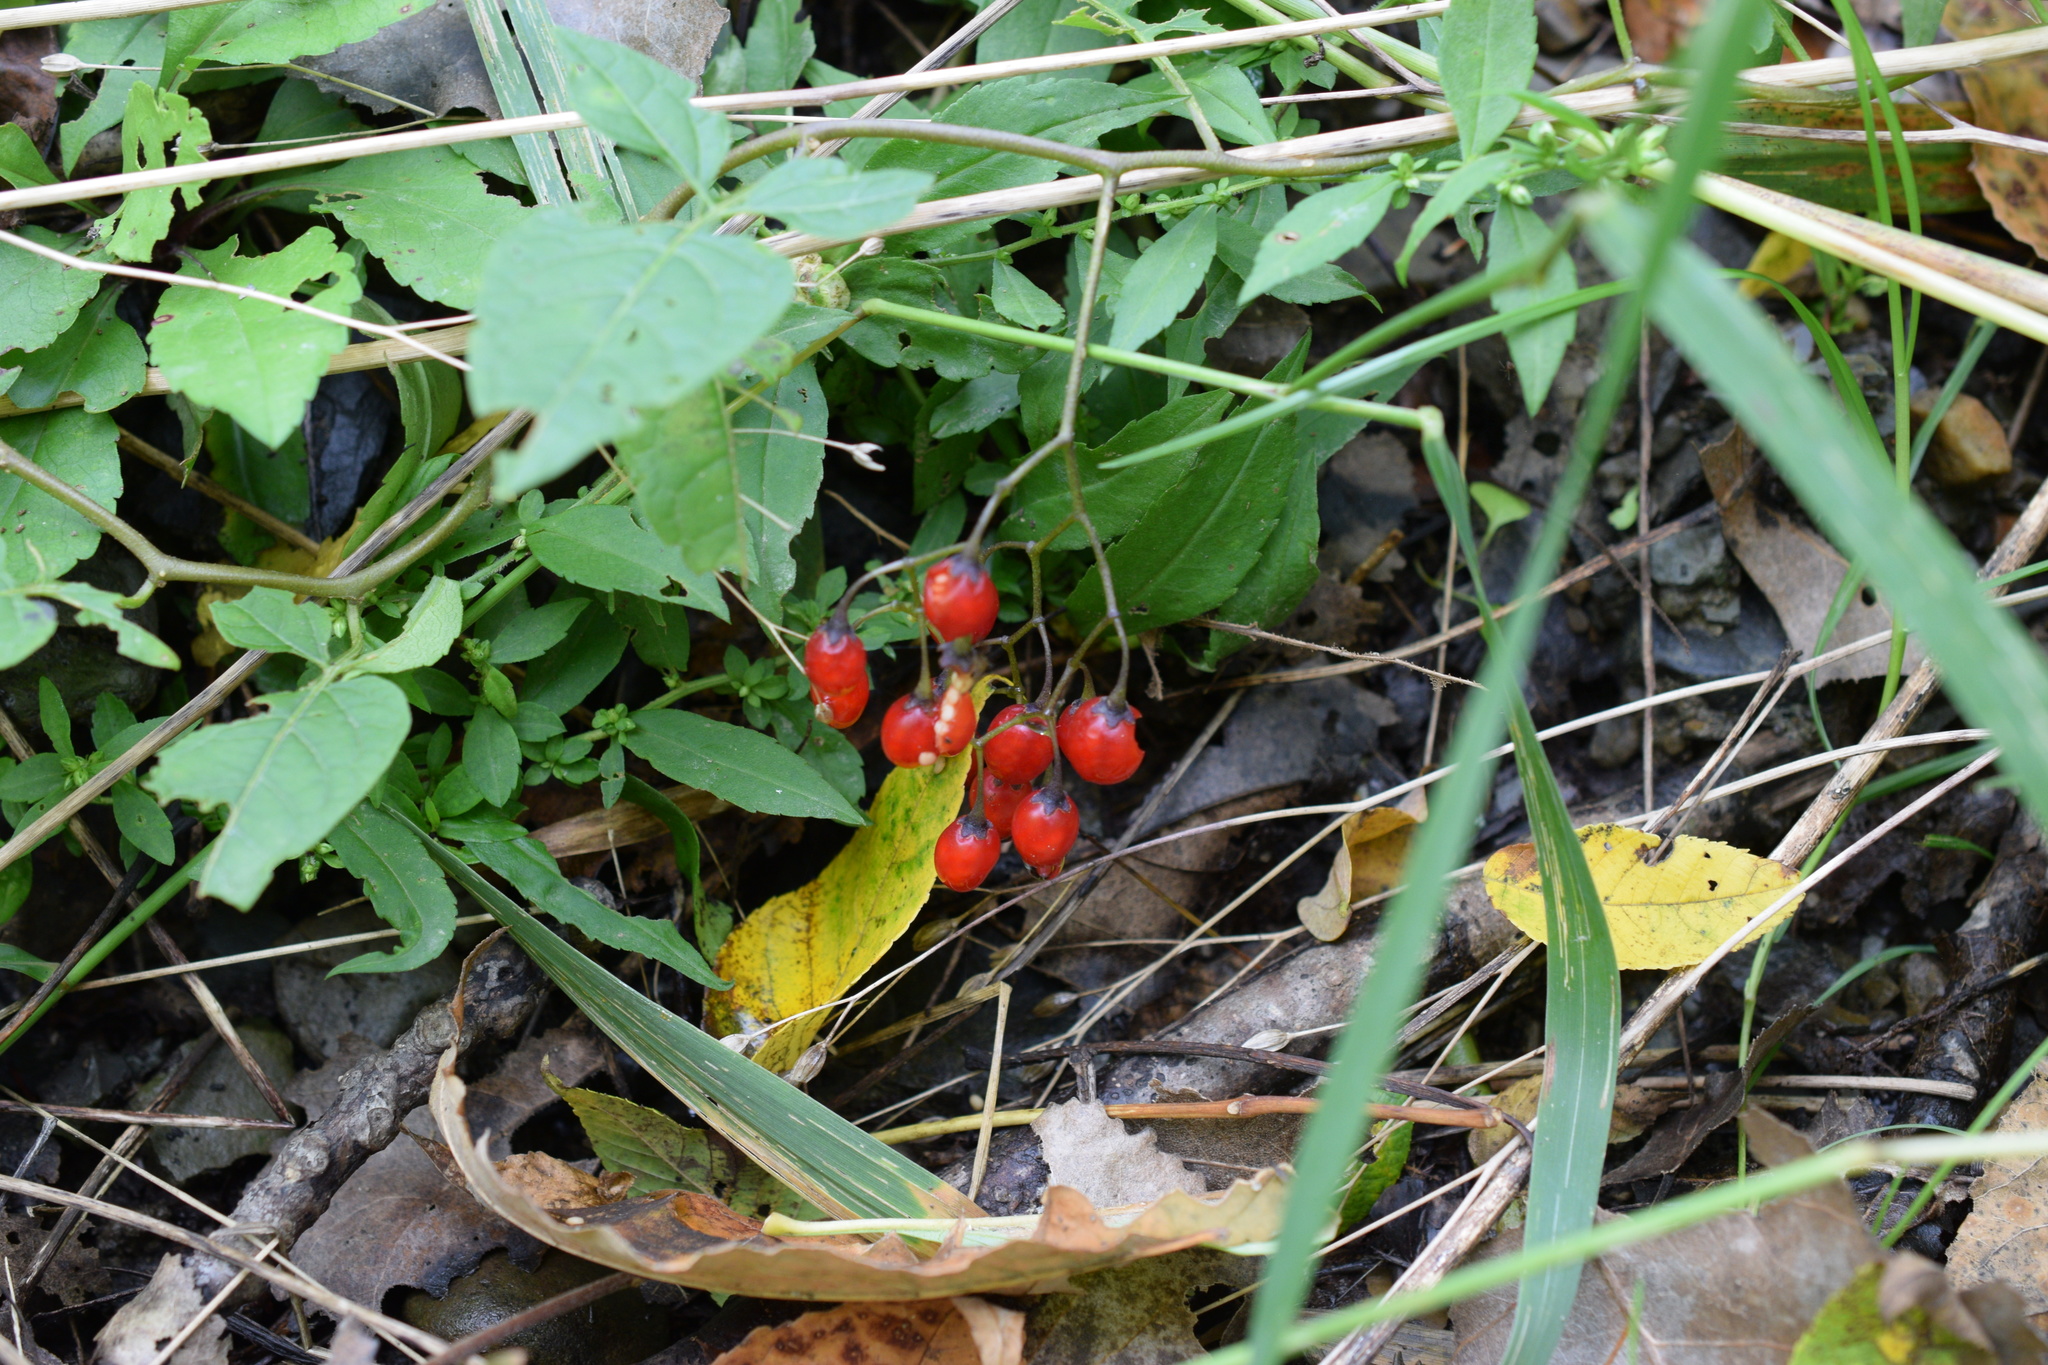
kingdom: Plantae
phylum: Tracheophyta
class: Magnoliopsida
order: Solanales
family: Solanaceae
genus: Solanum
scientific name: Solanum dulcamara
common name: Climbing nightshade
